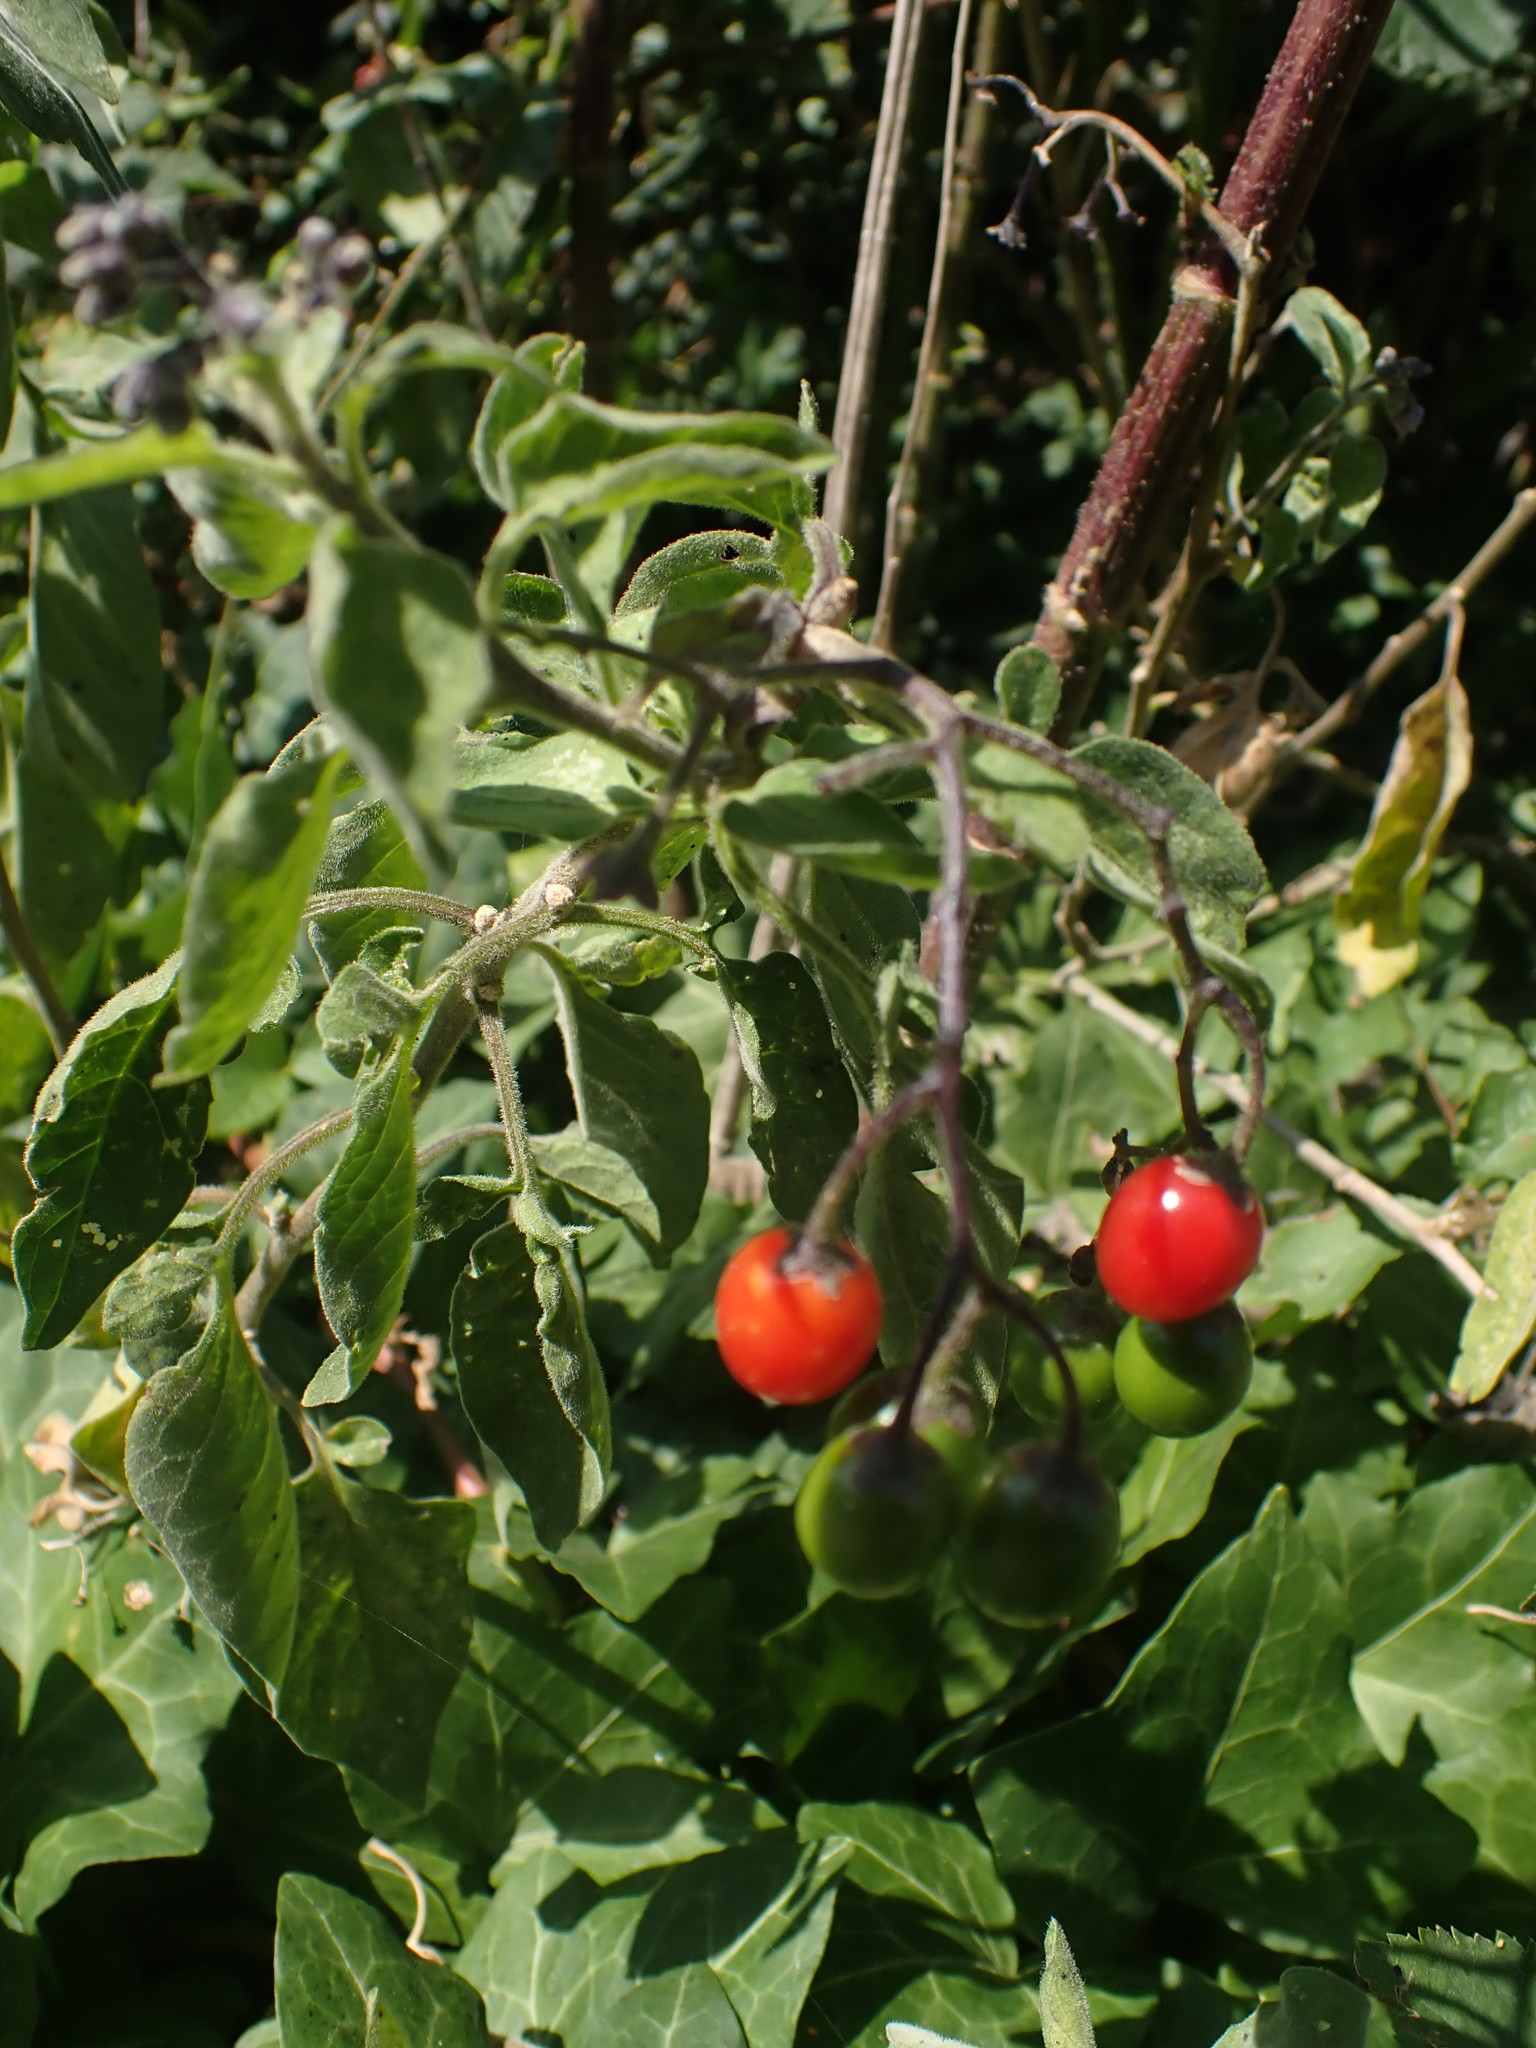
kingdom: Plantae
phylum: Tracheophyta
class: Magnoliopsida
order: Solanales
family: Solanaceae
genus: Solanum
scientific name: Solanum dulcamara
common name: Climbing nightshade
